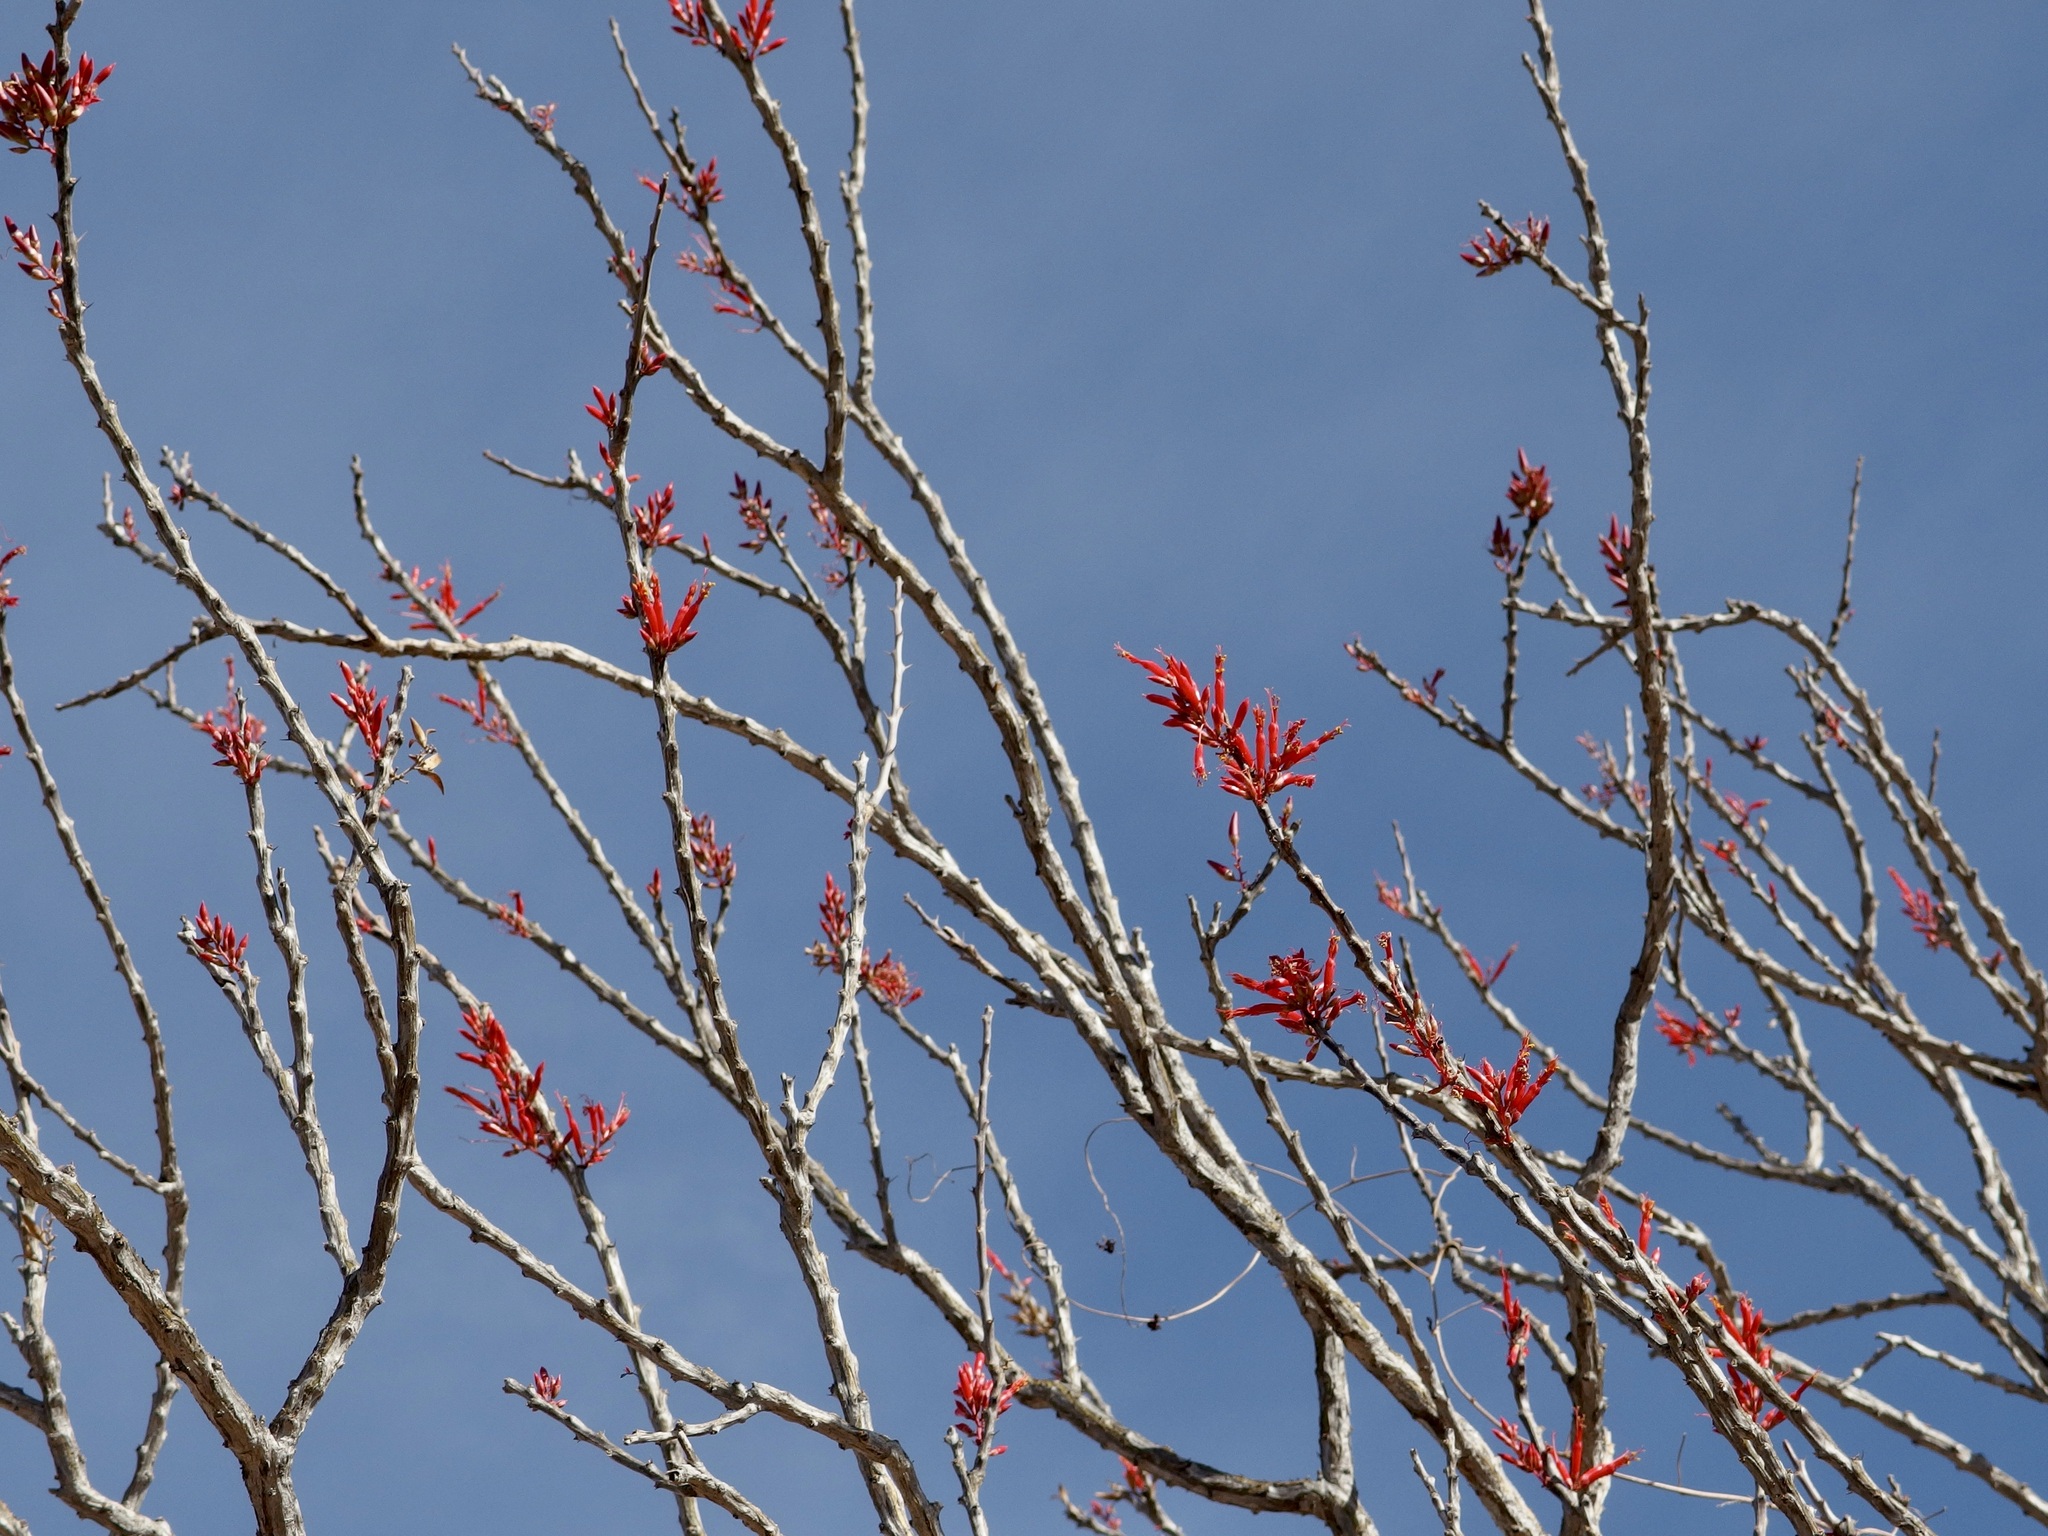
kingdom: Plantae
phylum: Tracheophyta
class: Magnoliopsida
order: Ericales
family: Fouquieriaceae
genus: Fouquieria
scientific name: Fouquieria diguetii
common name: Adam's tree
